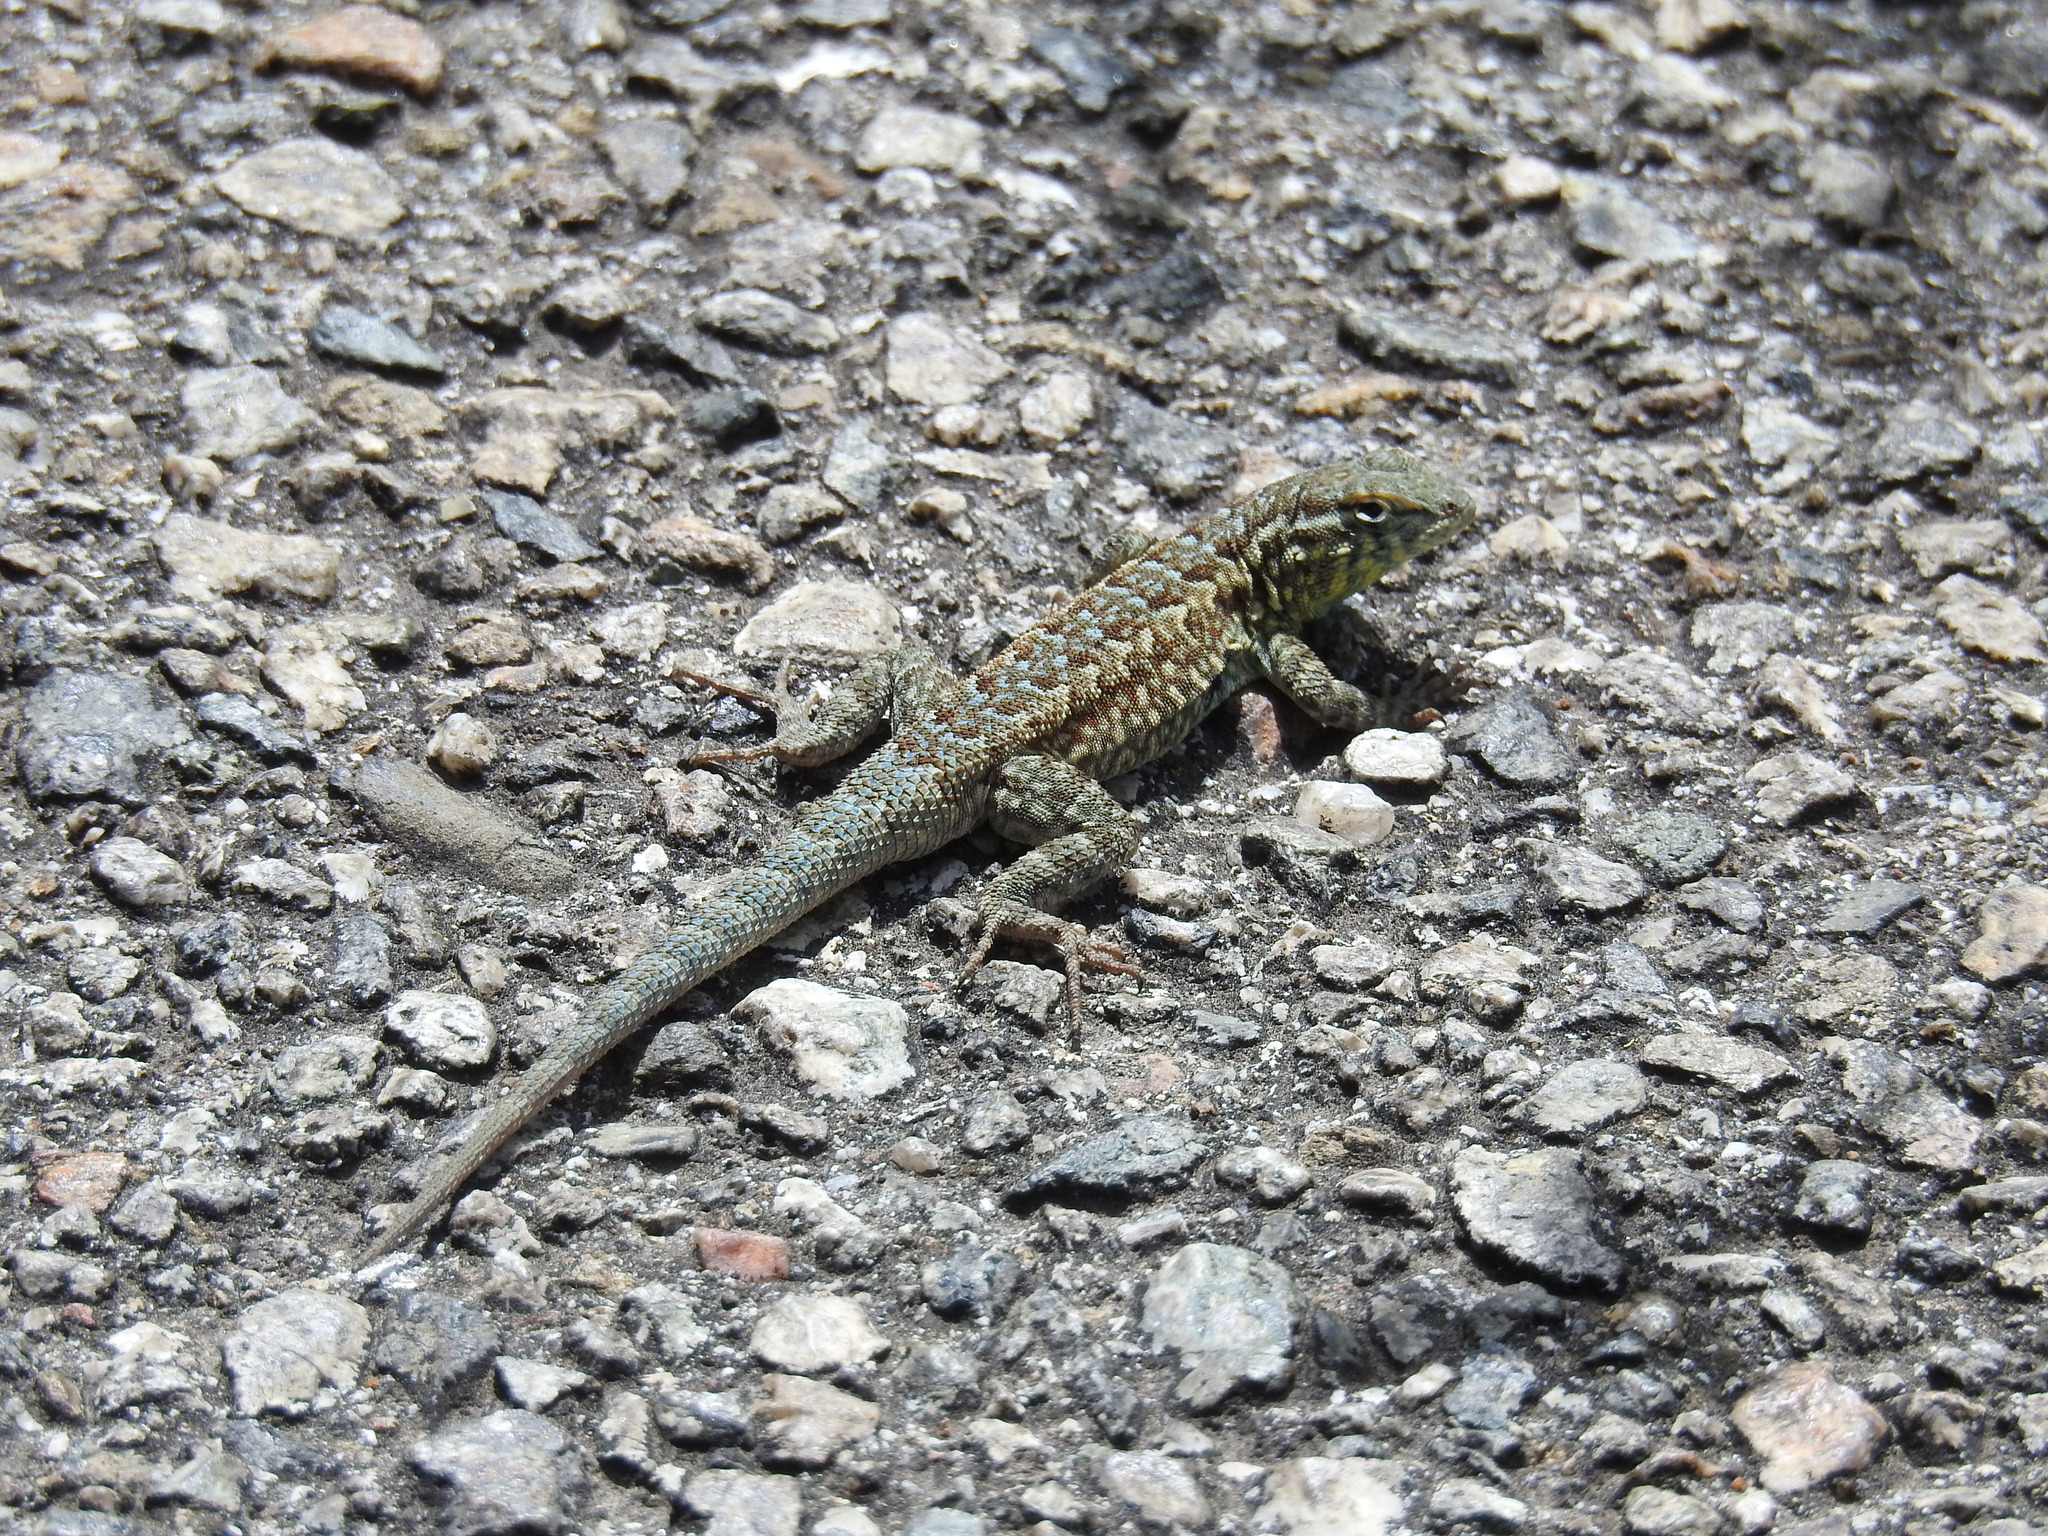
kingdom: Animalia
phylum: Chordata
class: Squamata
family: Phrynosomatidae
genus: Uta
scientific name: Uta stansburiana
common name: Side-blotched lizard
